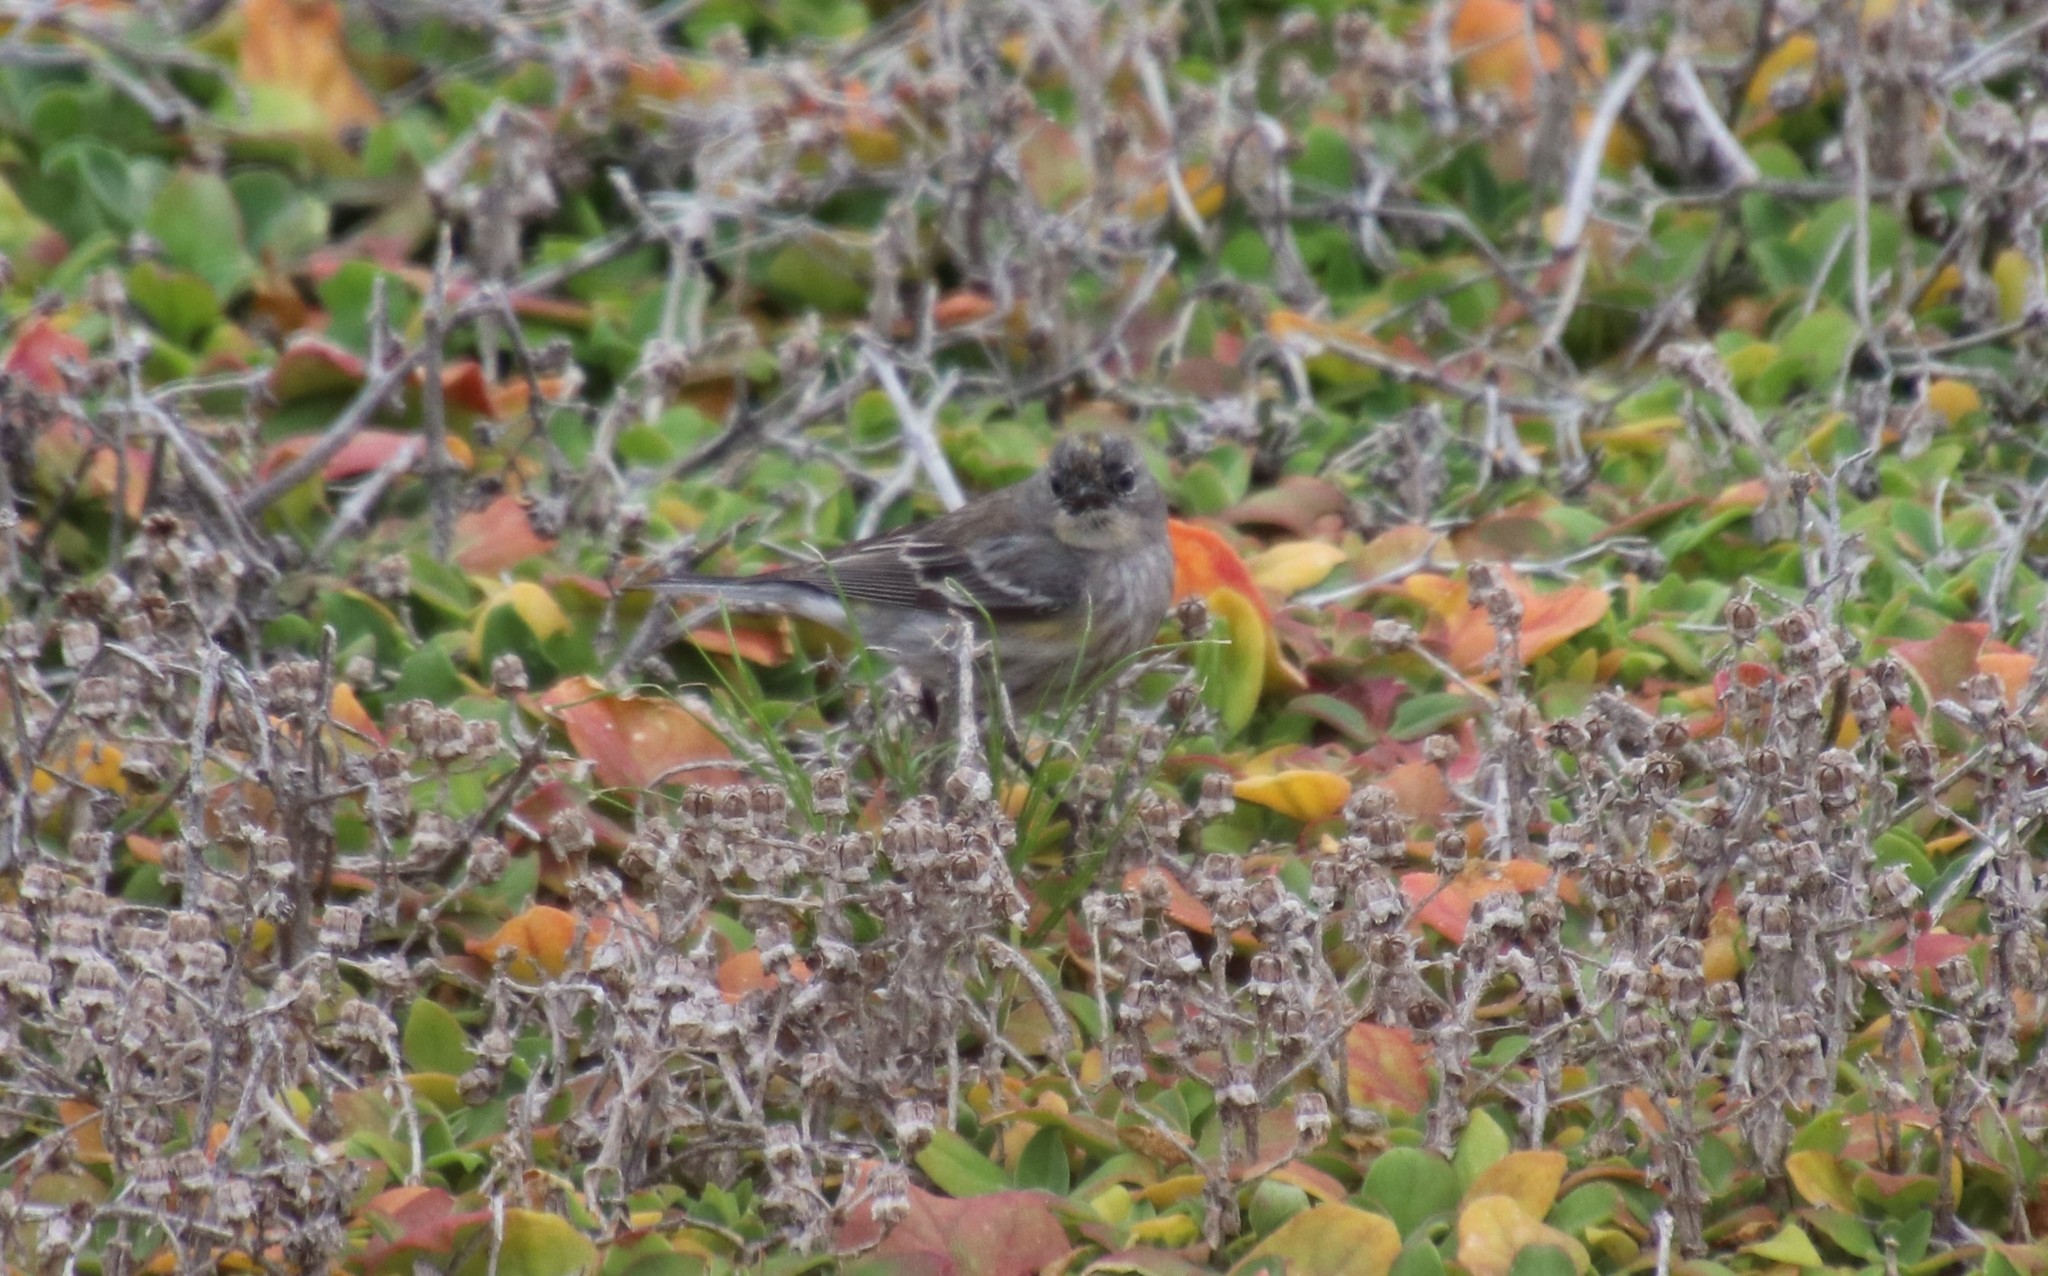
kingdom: Animalia
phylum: Chordata
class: Aves
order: Passeriformes
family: Parulidae
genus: Setophaga
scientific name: Setophaga coronata
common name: Myrtle warbler
